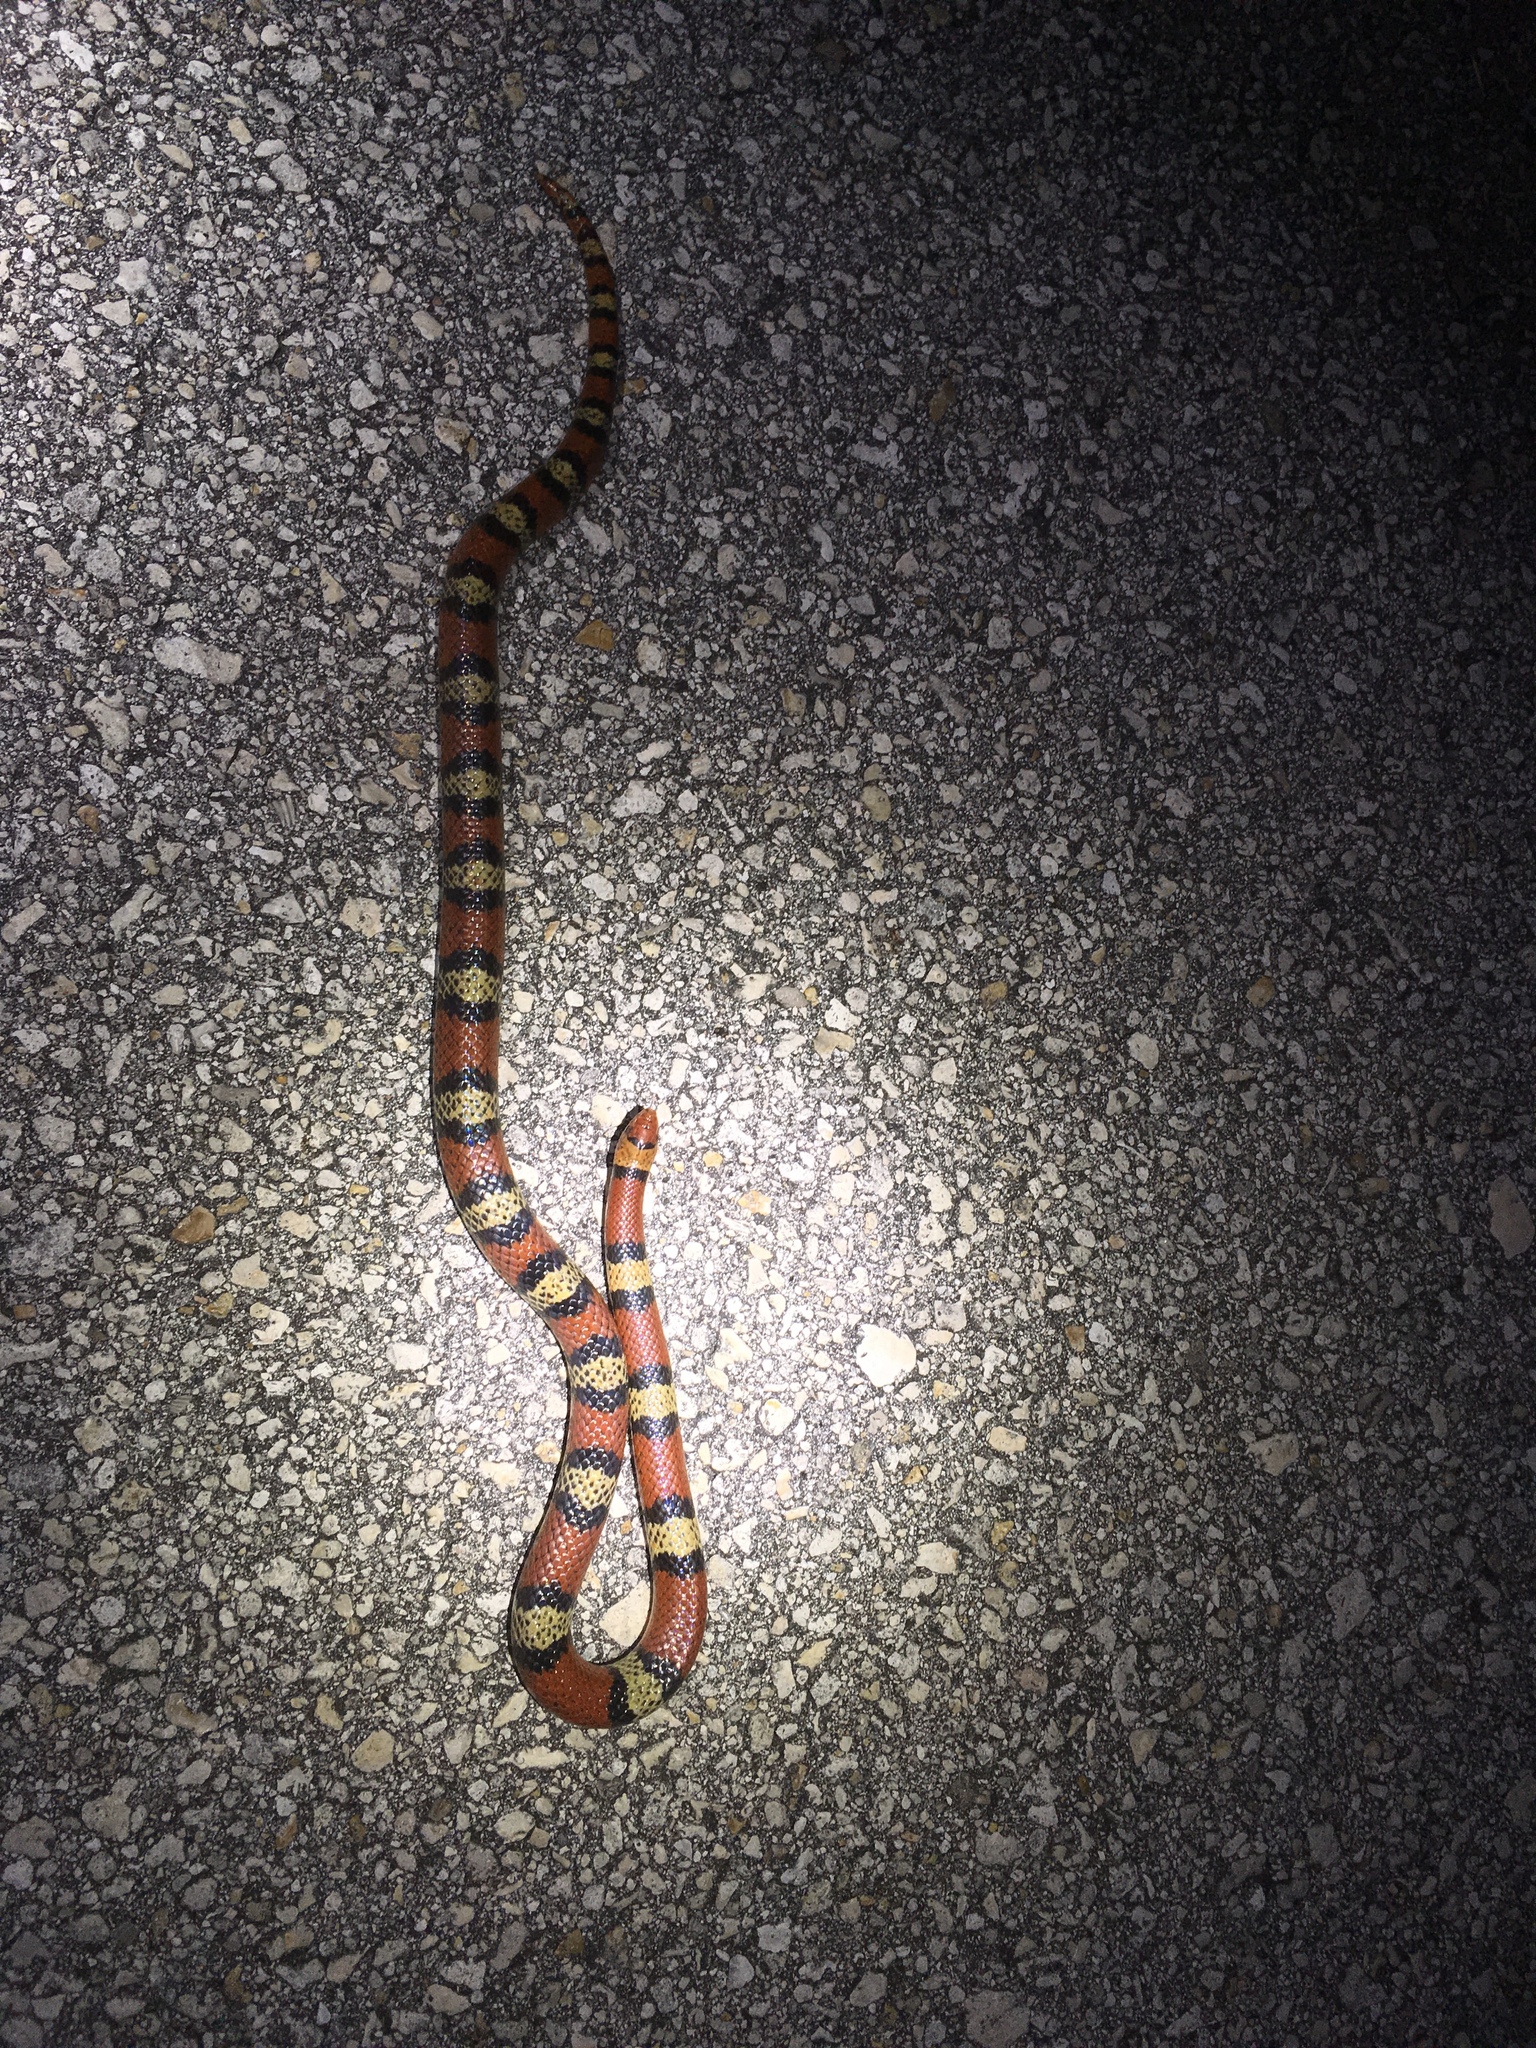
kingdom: Animalia
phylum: Chordata
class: Squamata
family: Colubridae
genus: Cemophora
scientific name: Cemophora coccinea
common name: Scarlet snake
